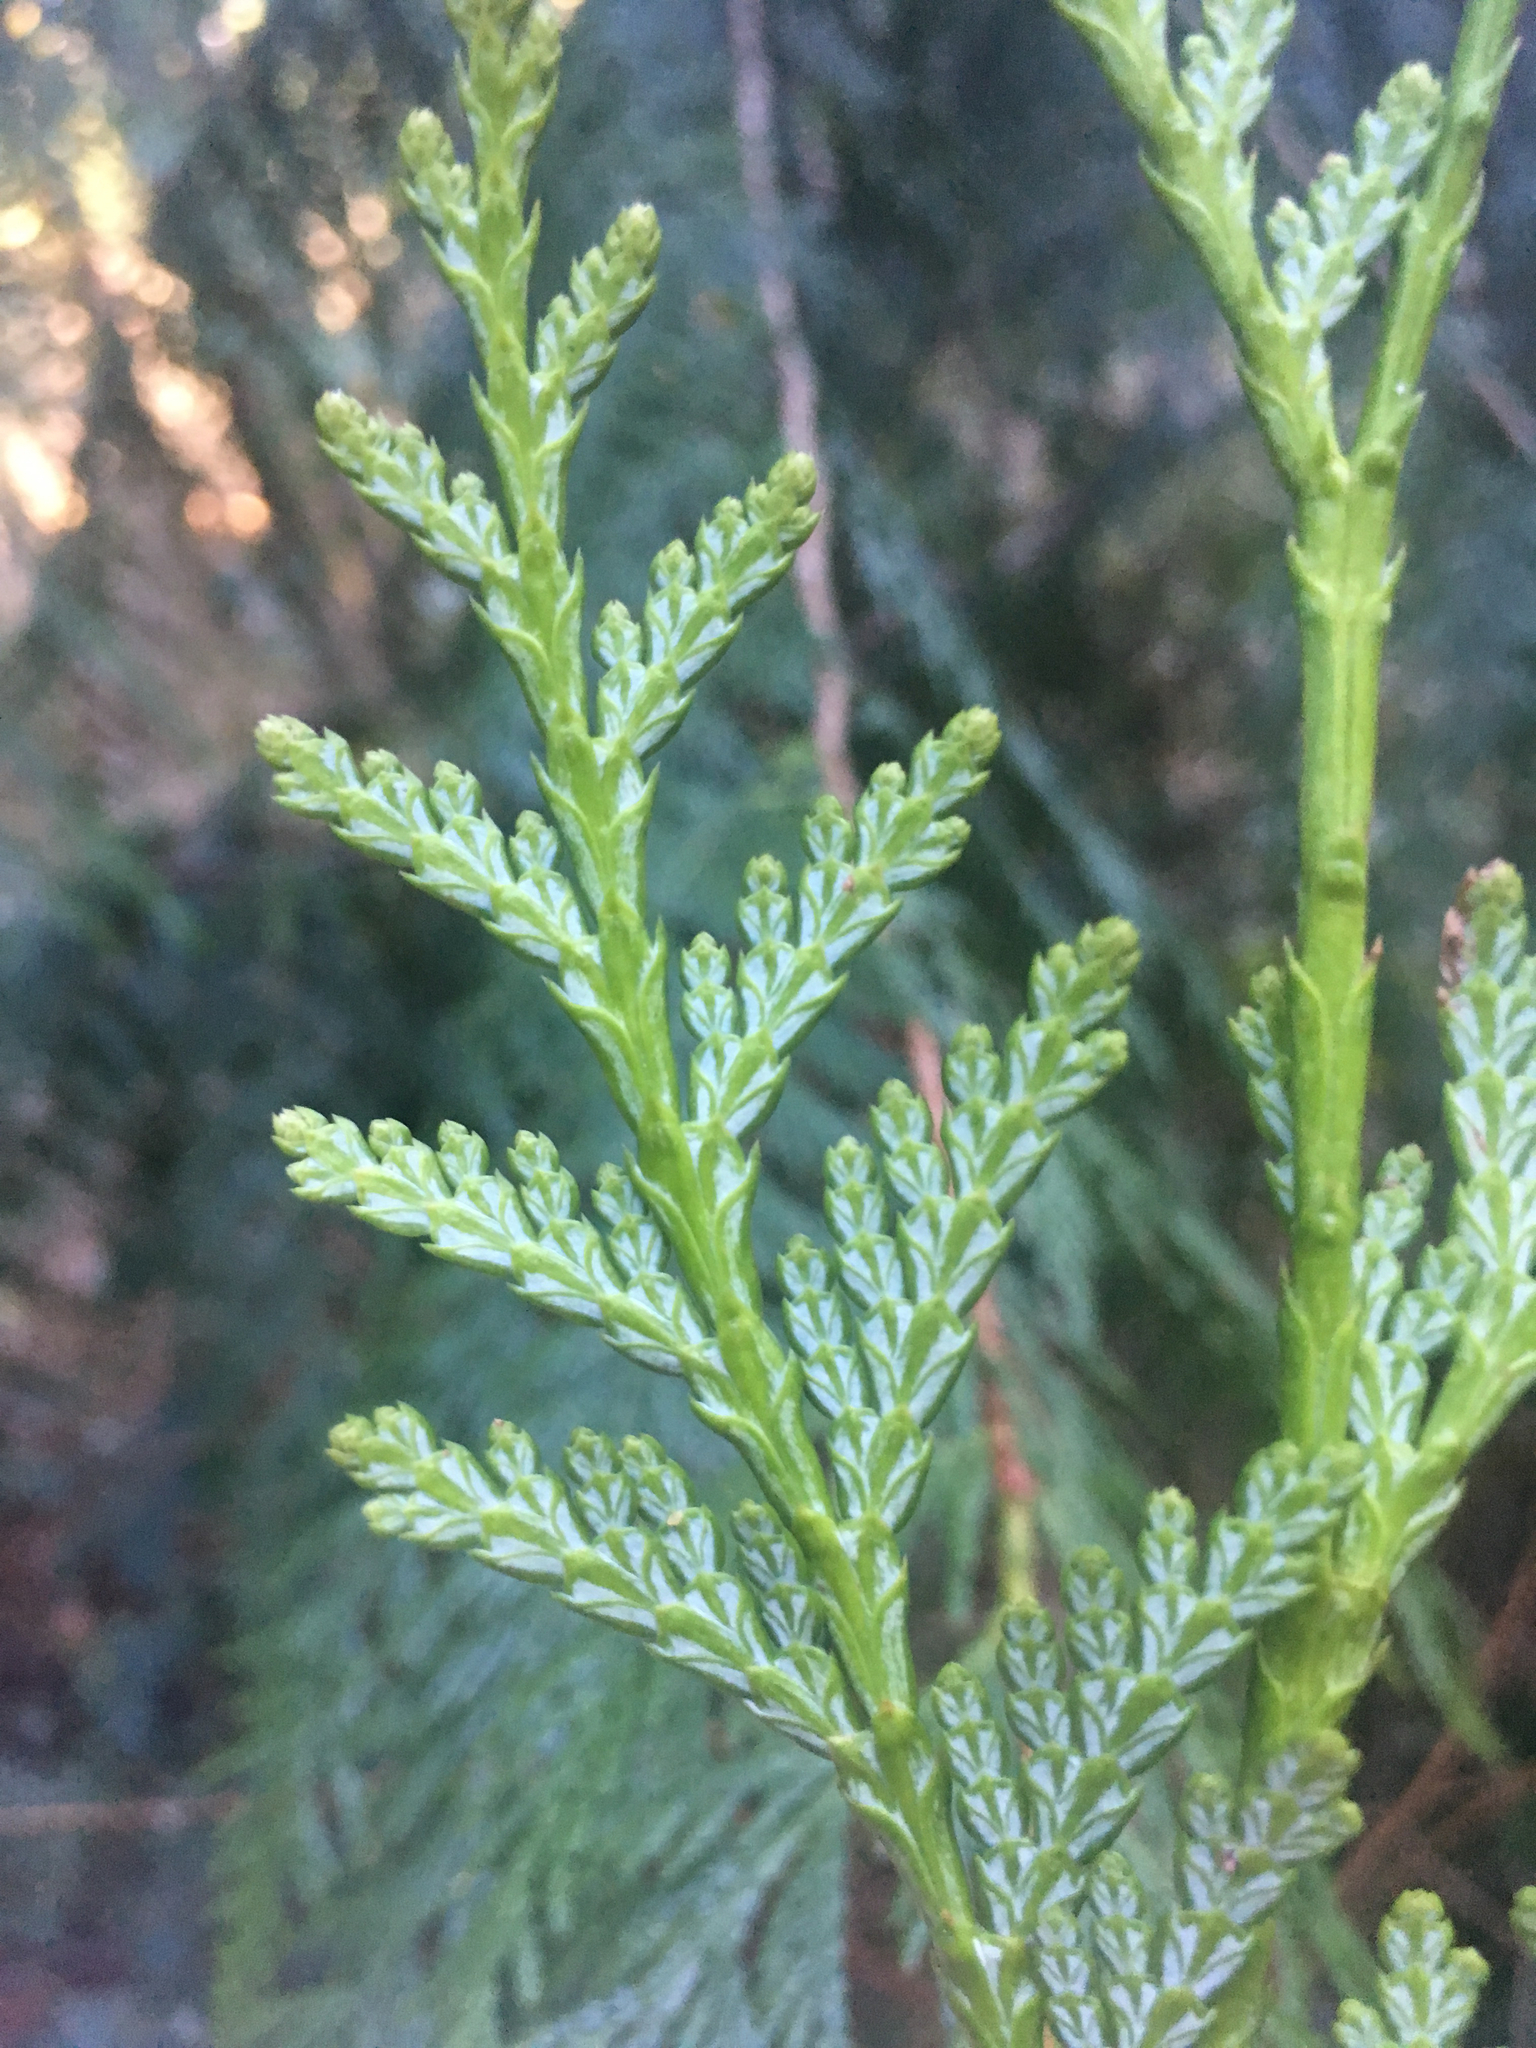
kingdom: Plantae
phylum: Tracheophyta
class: Pinopsida
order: Pinales
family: Cupressaceae
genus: Thuja
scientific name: Thuja plicata
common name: Western red-cedar
